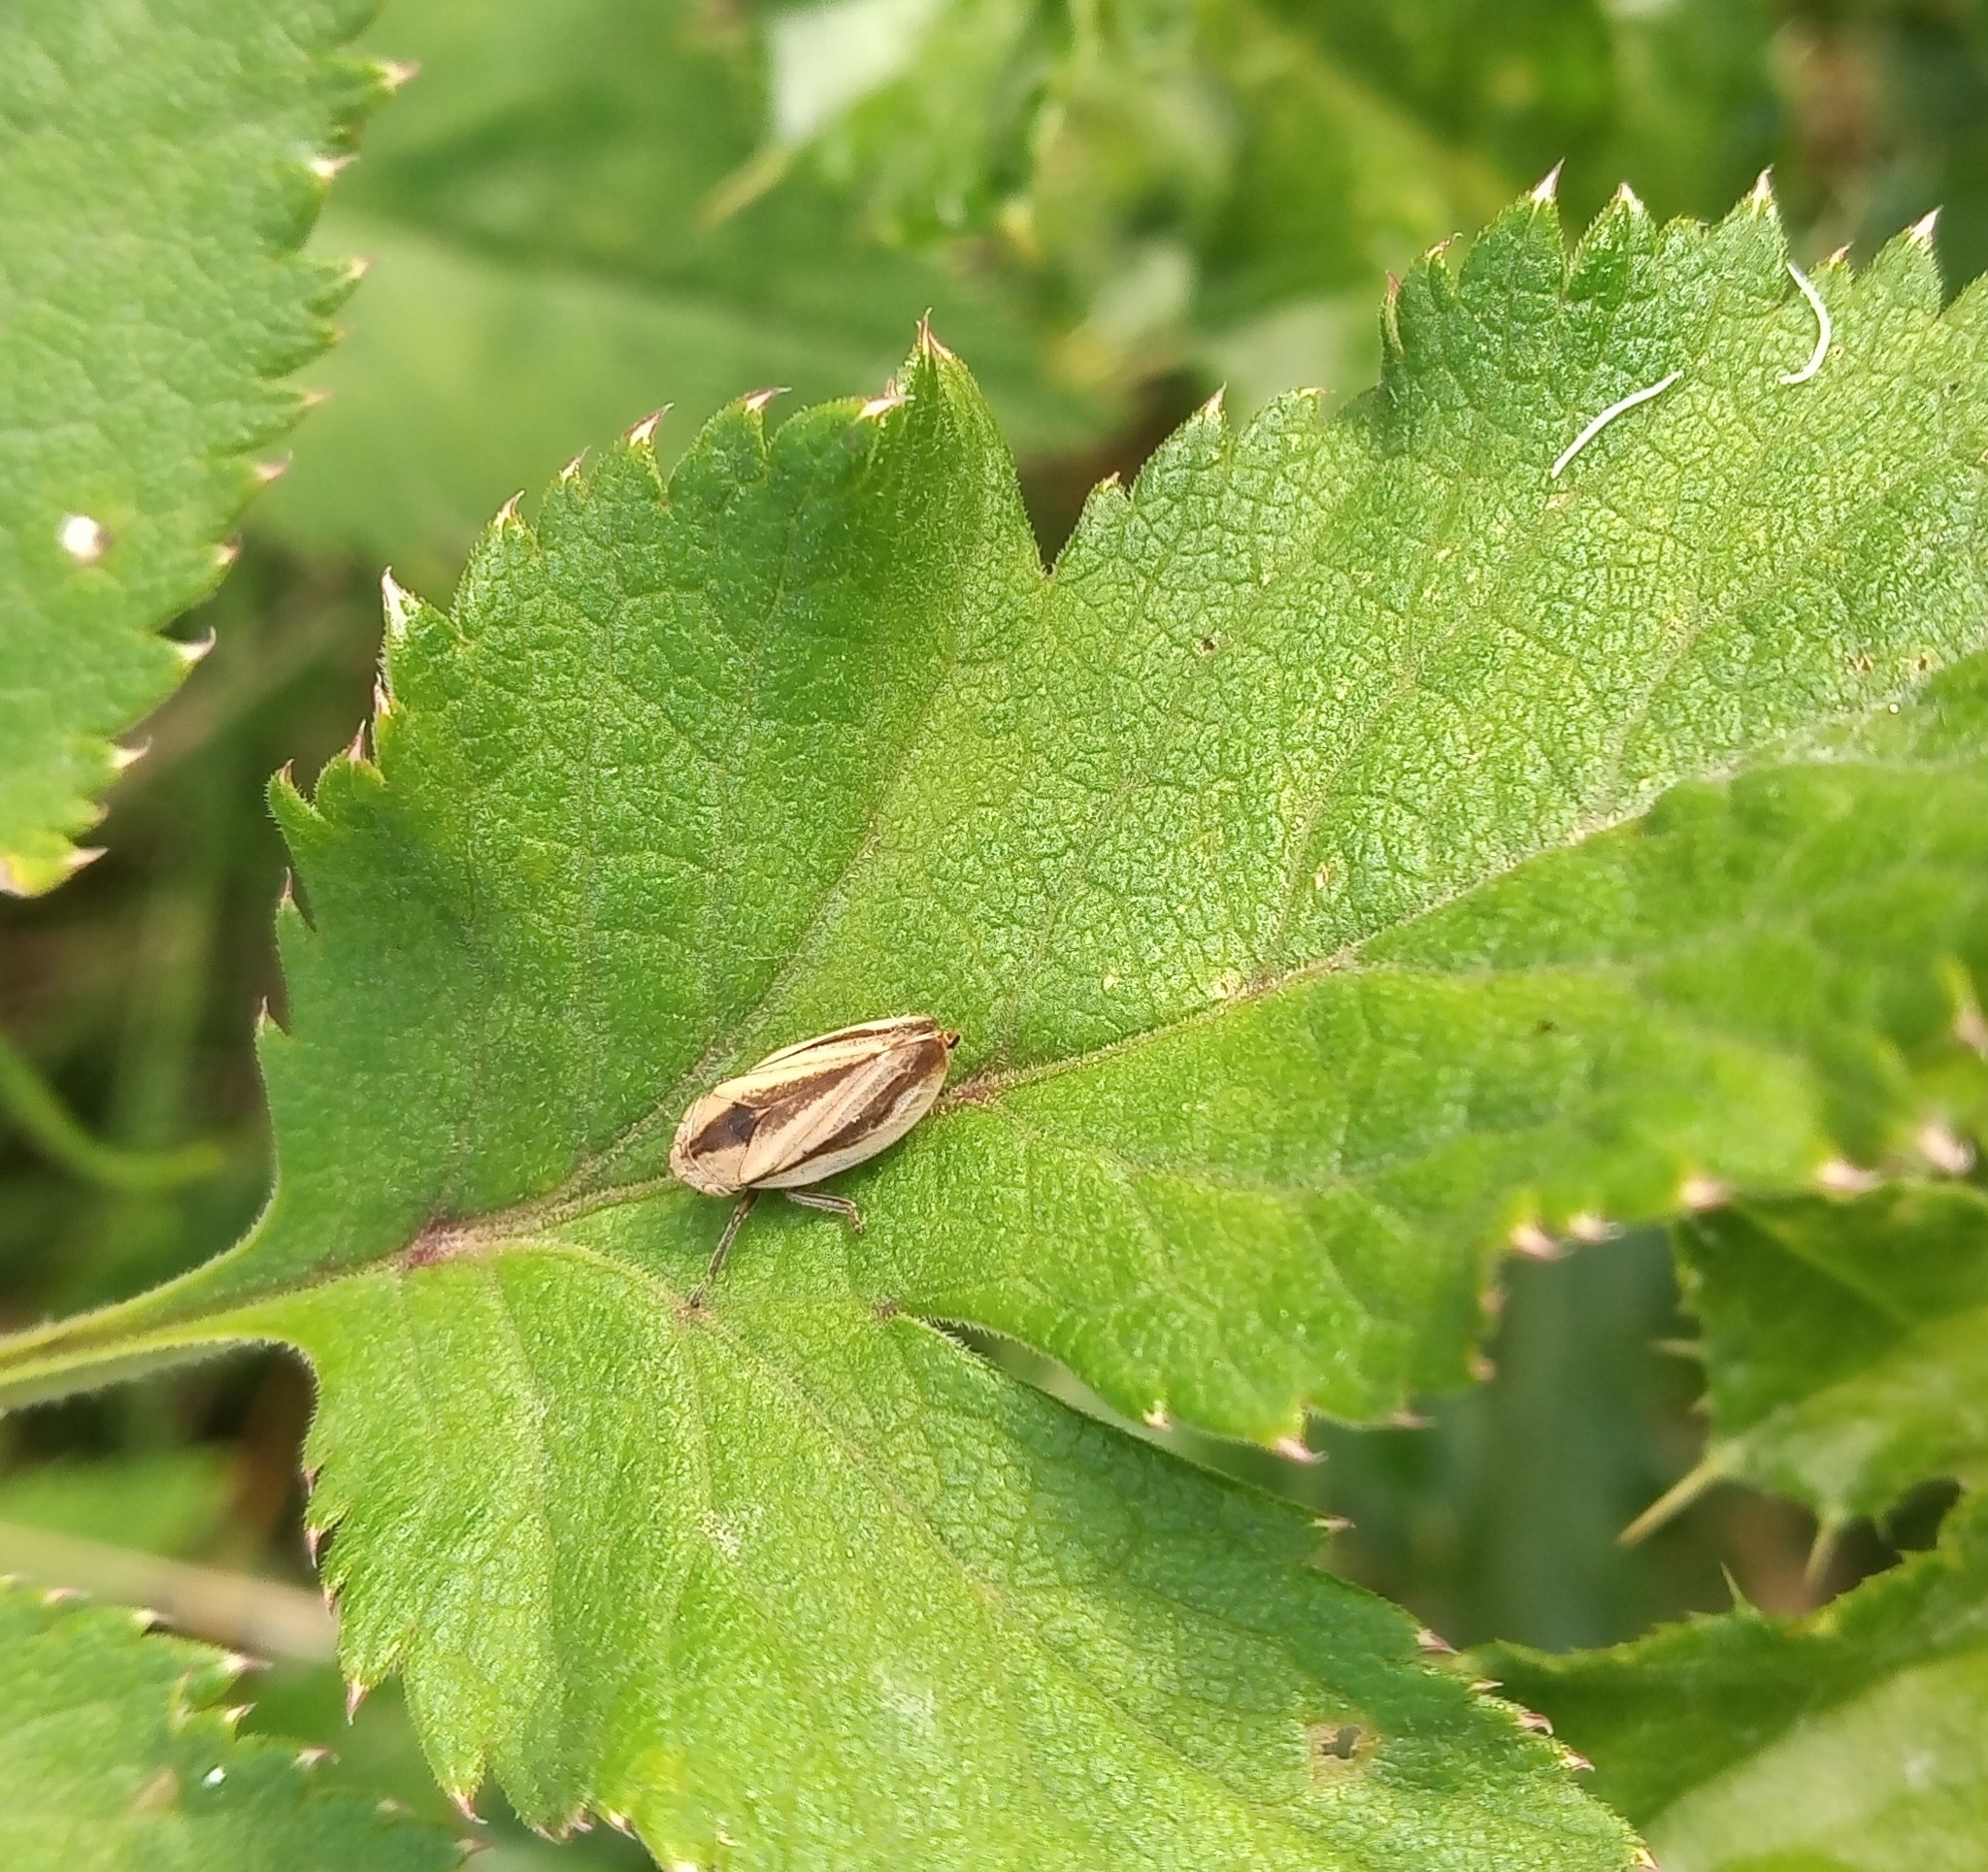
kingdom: Animalia
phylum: Arthropoda
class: Insecta
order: Hemiptera
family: Aphrophoridae
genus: Philaenus
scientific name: Philaenus spumarius
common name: Meadow spittlebug
